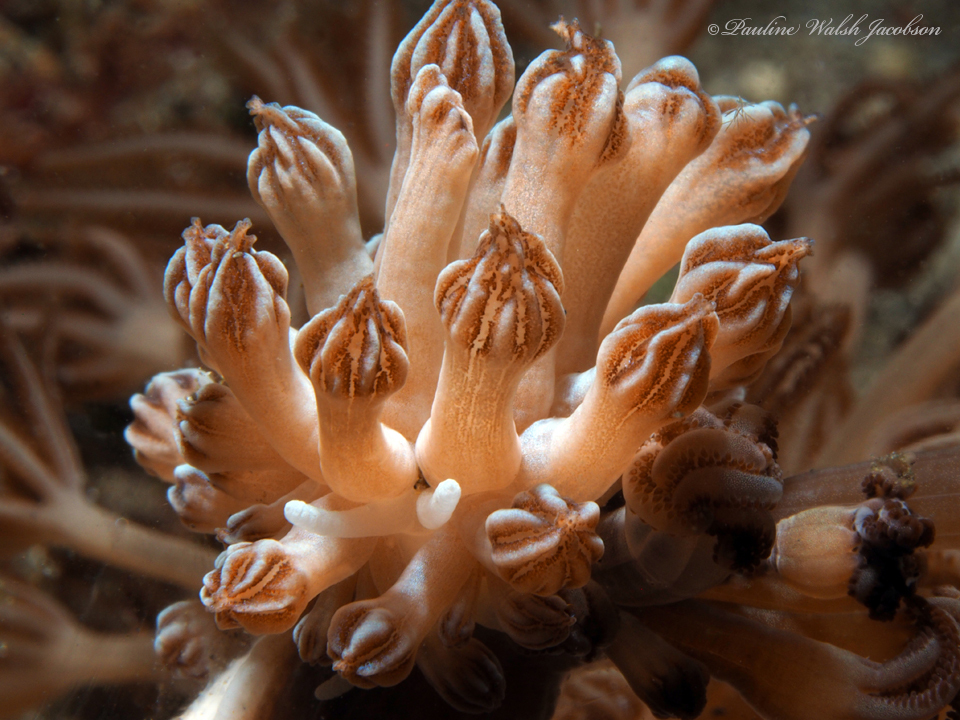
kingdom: Animalia
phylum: Mollusca
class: Gastropoda
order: Nudibranchia
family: Myrrhinidae
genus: Phyllodesmium
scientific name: Phyllodesmium rudmani
